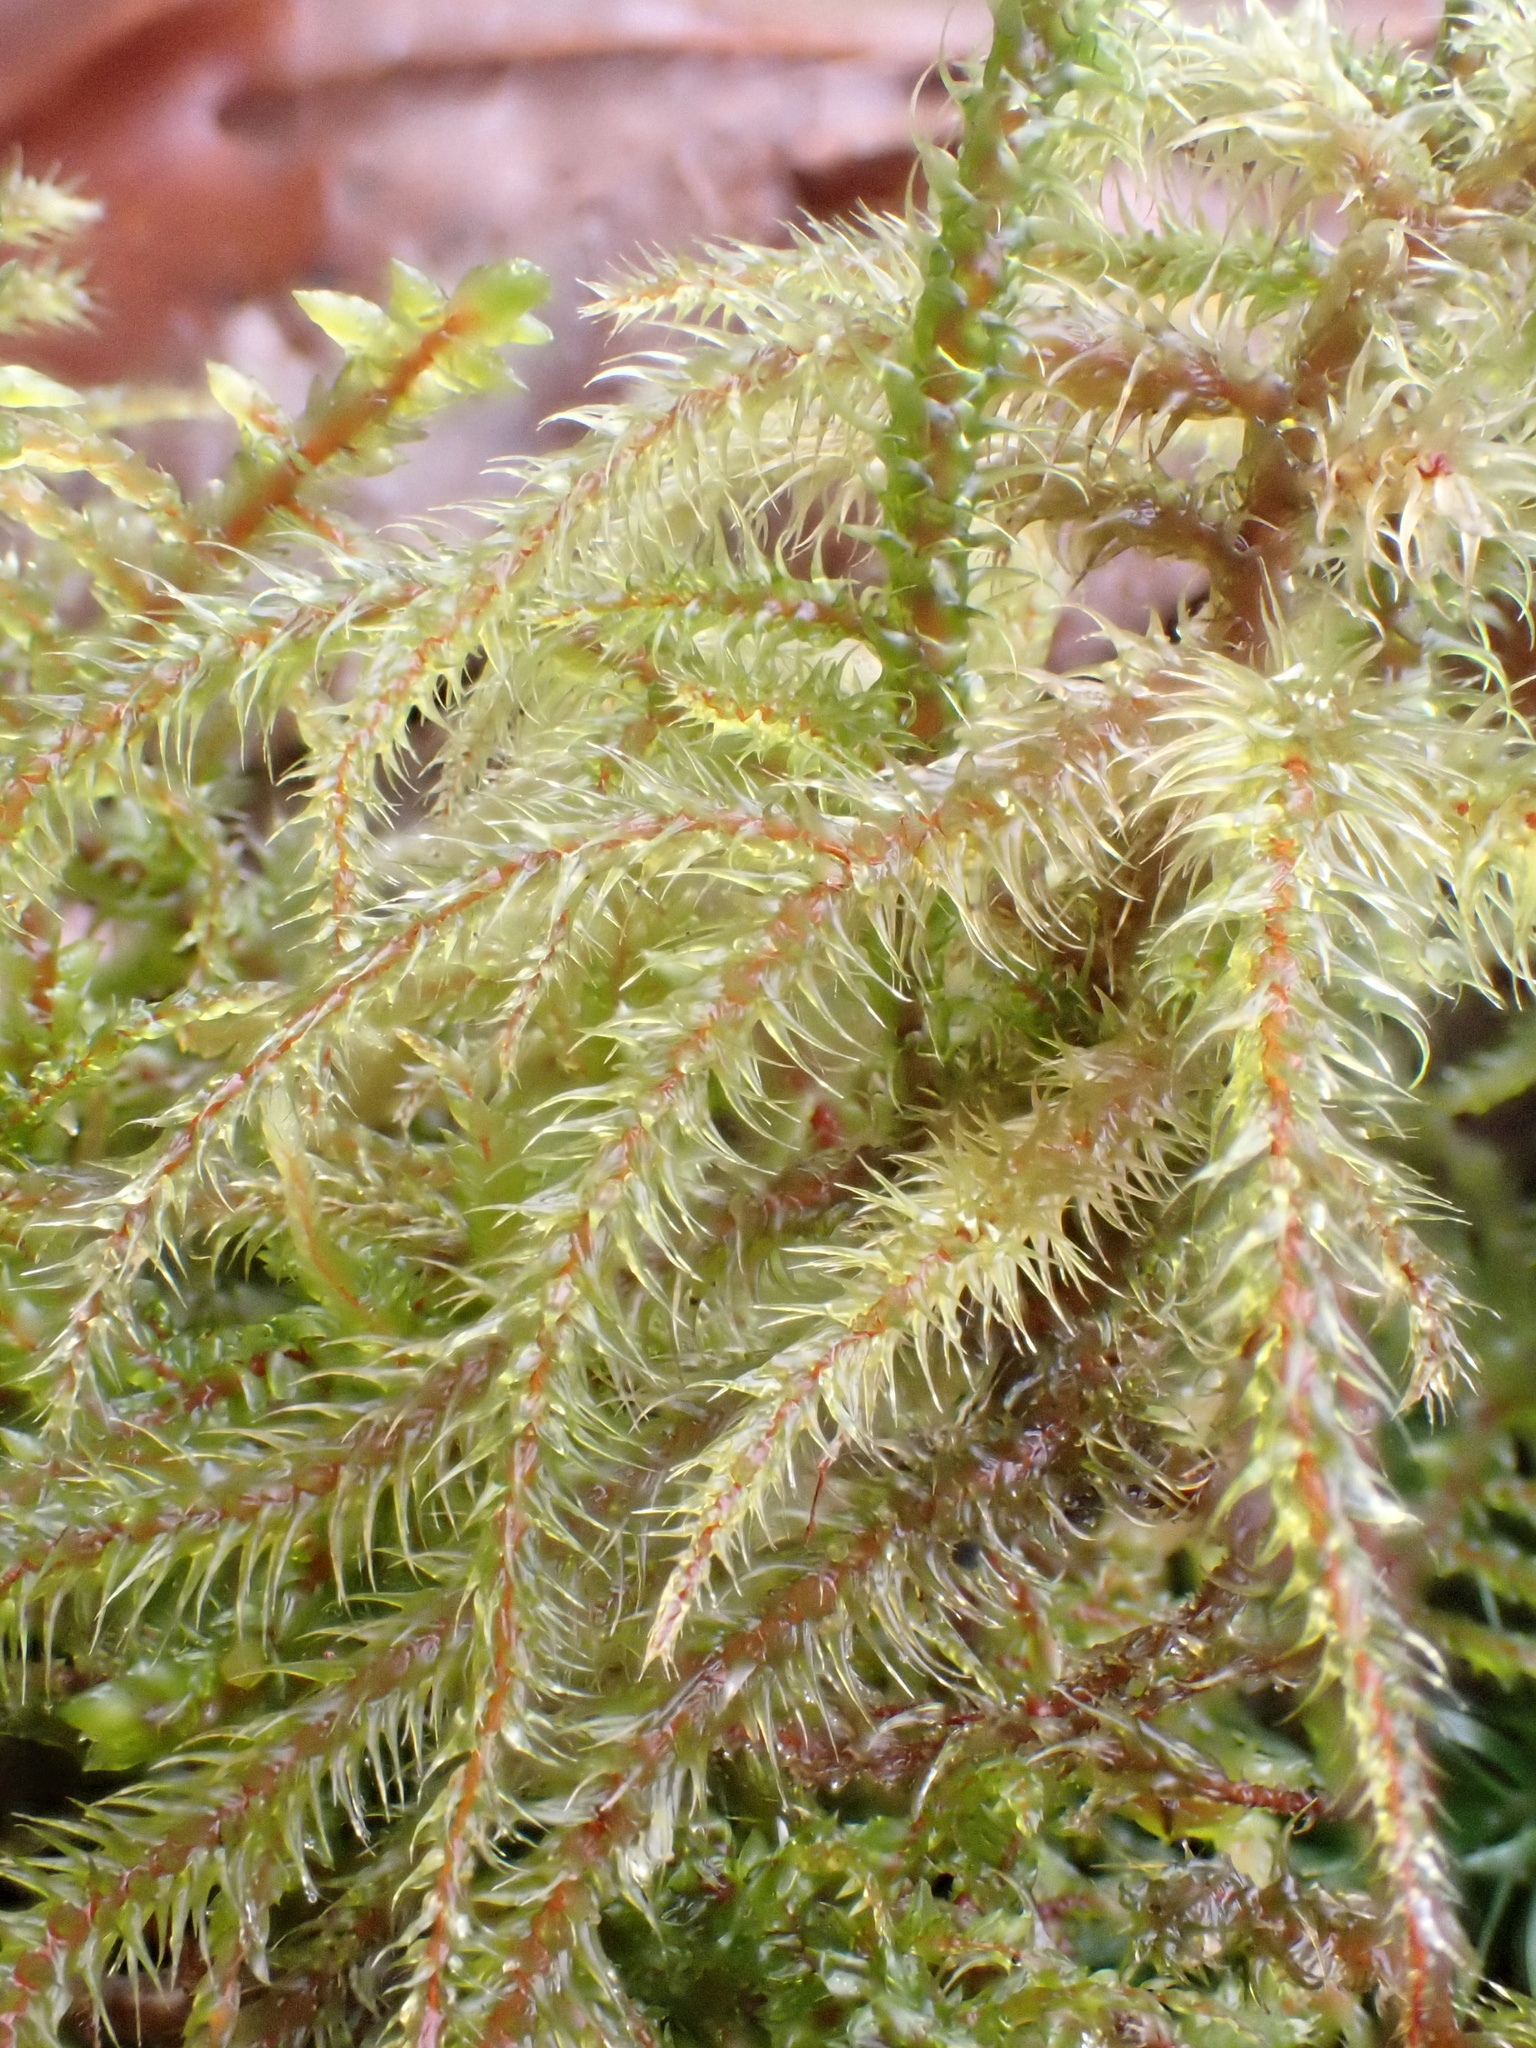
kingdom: Plantae
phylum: Bryophyta
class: Bryopsida
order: Hypnales
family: Hylocomiaceae
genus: Rhytidiadelphus
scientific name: Rhytidiadelphus loreus
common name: Lanky moss
